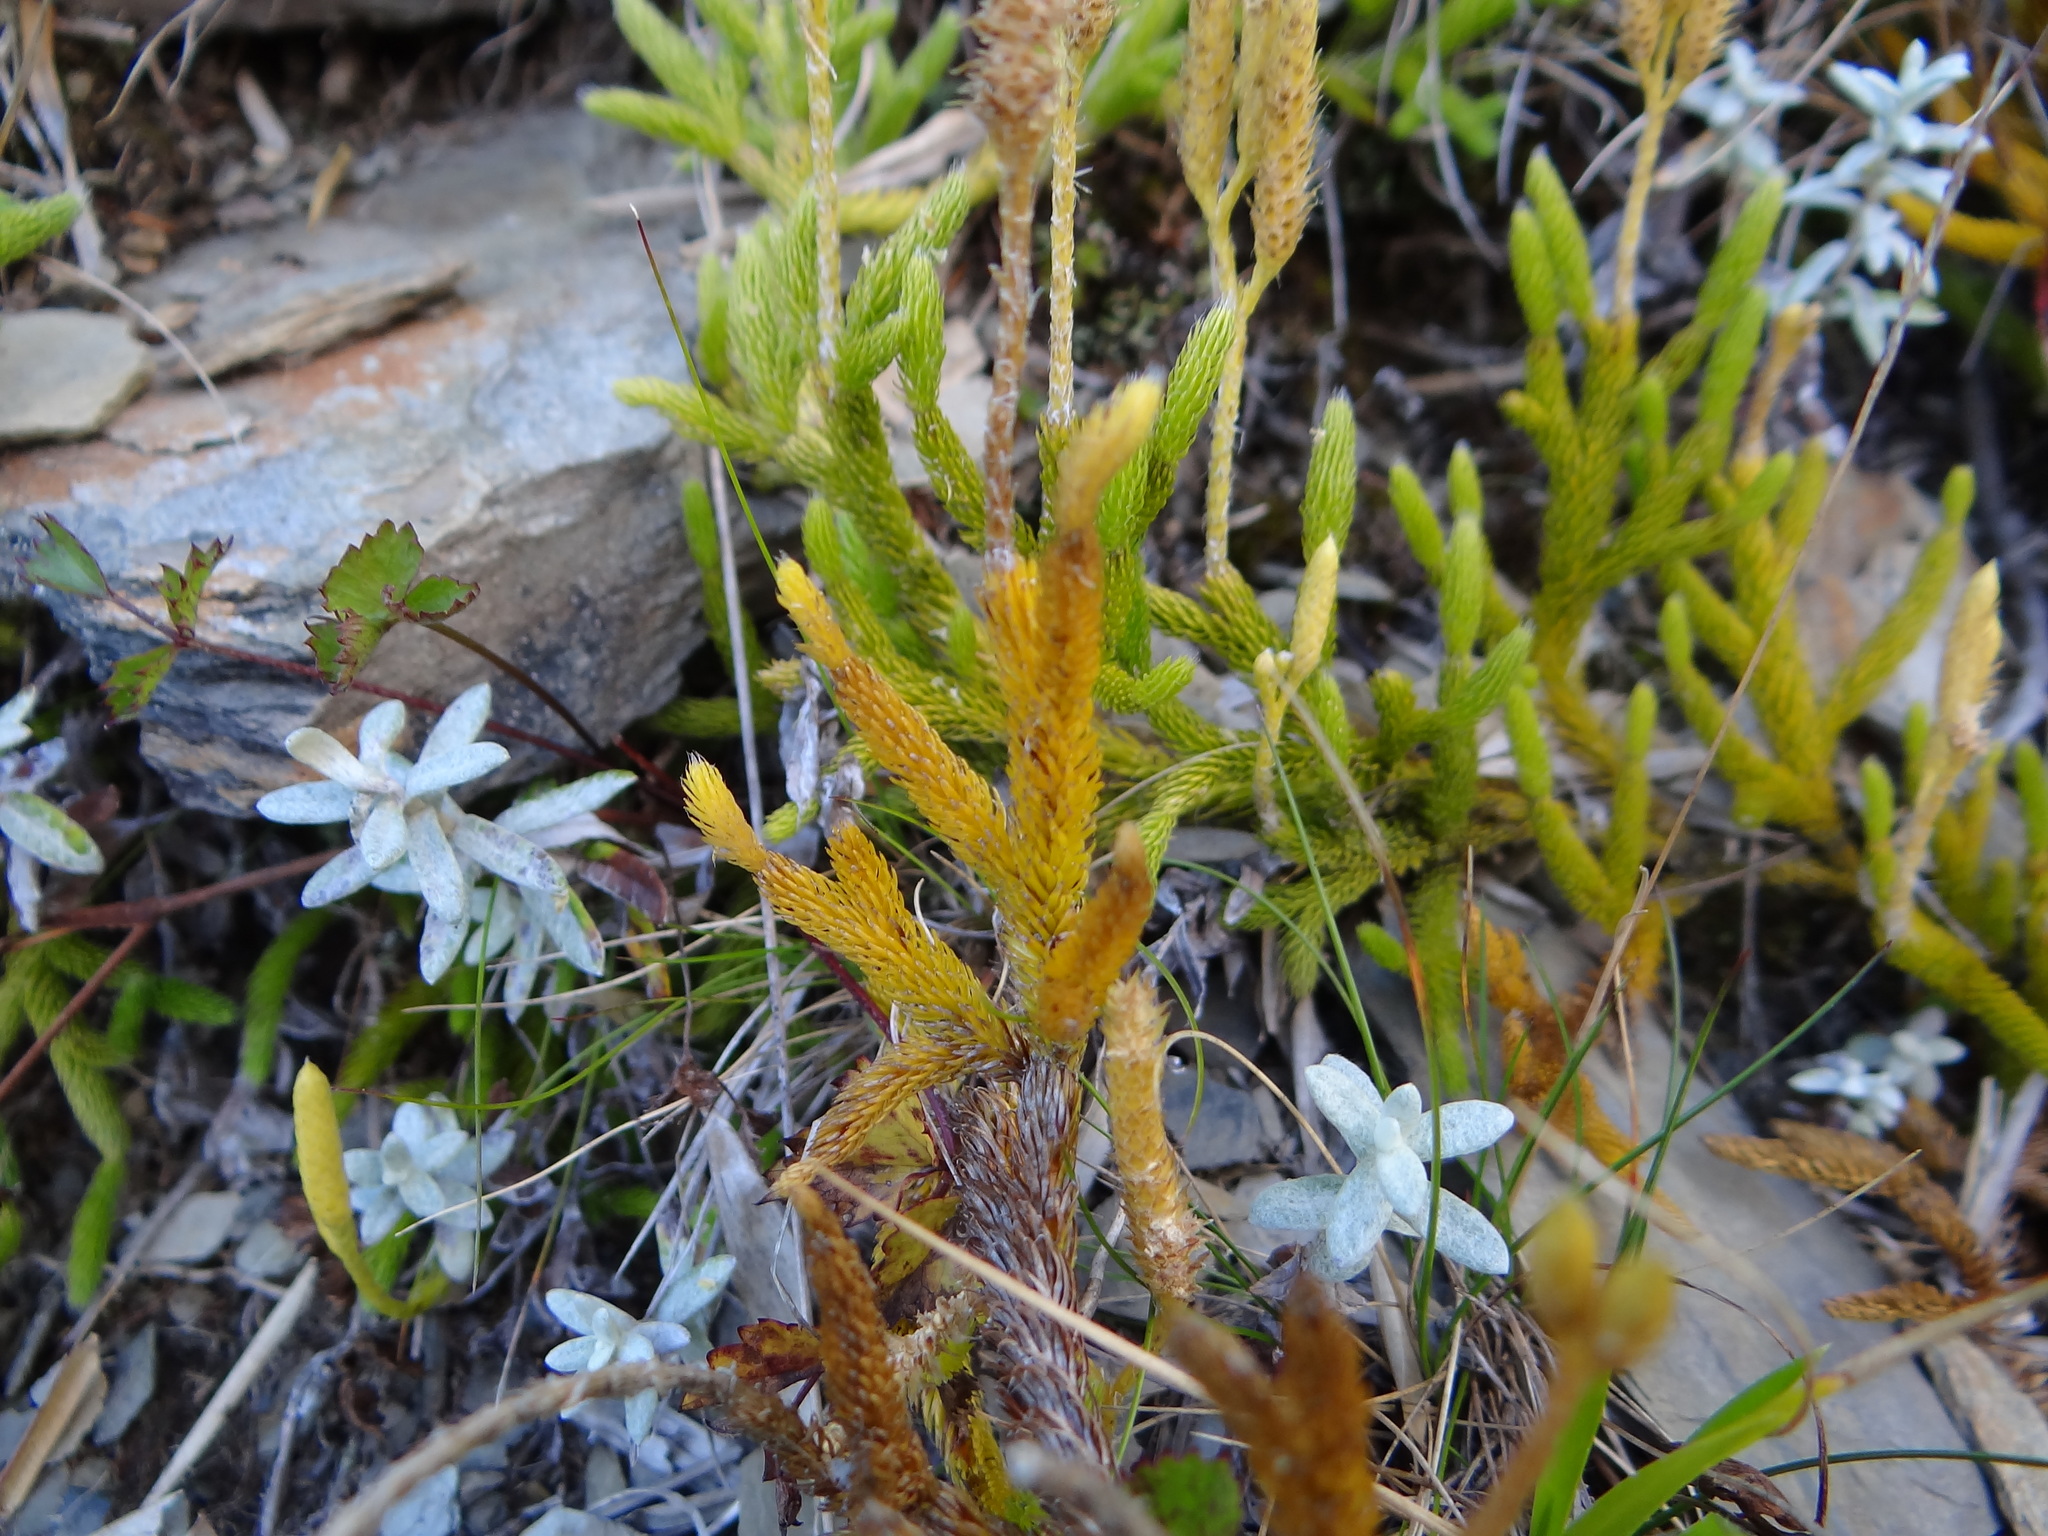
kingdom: Plantae
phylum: Tracheophyta
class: Lycopodiopsida
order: Lycopodiales
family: Lycopodiaceae
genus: Lycopodium
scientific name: Lycopodium clavatum
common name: Stag's-horn clubmoss
